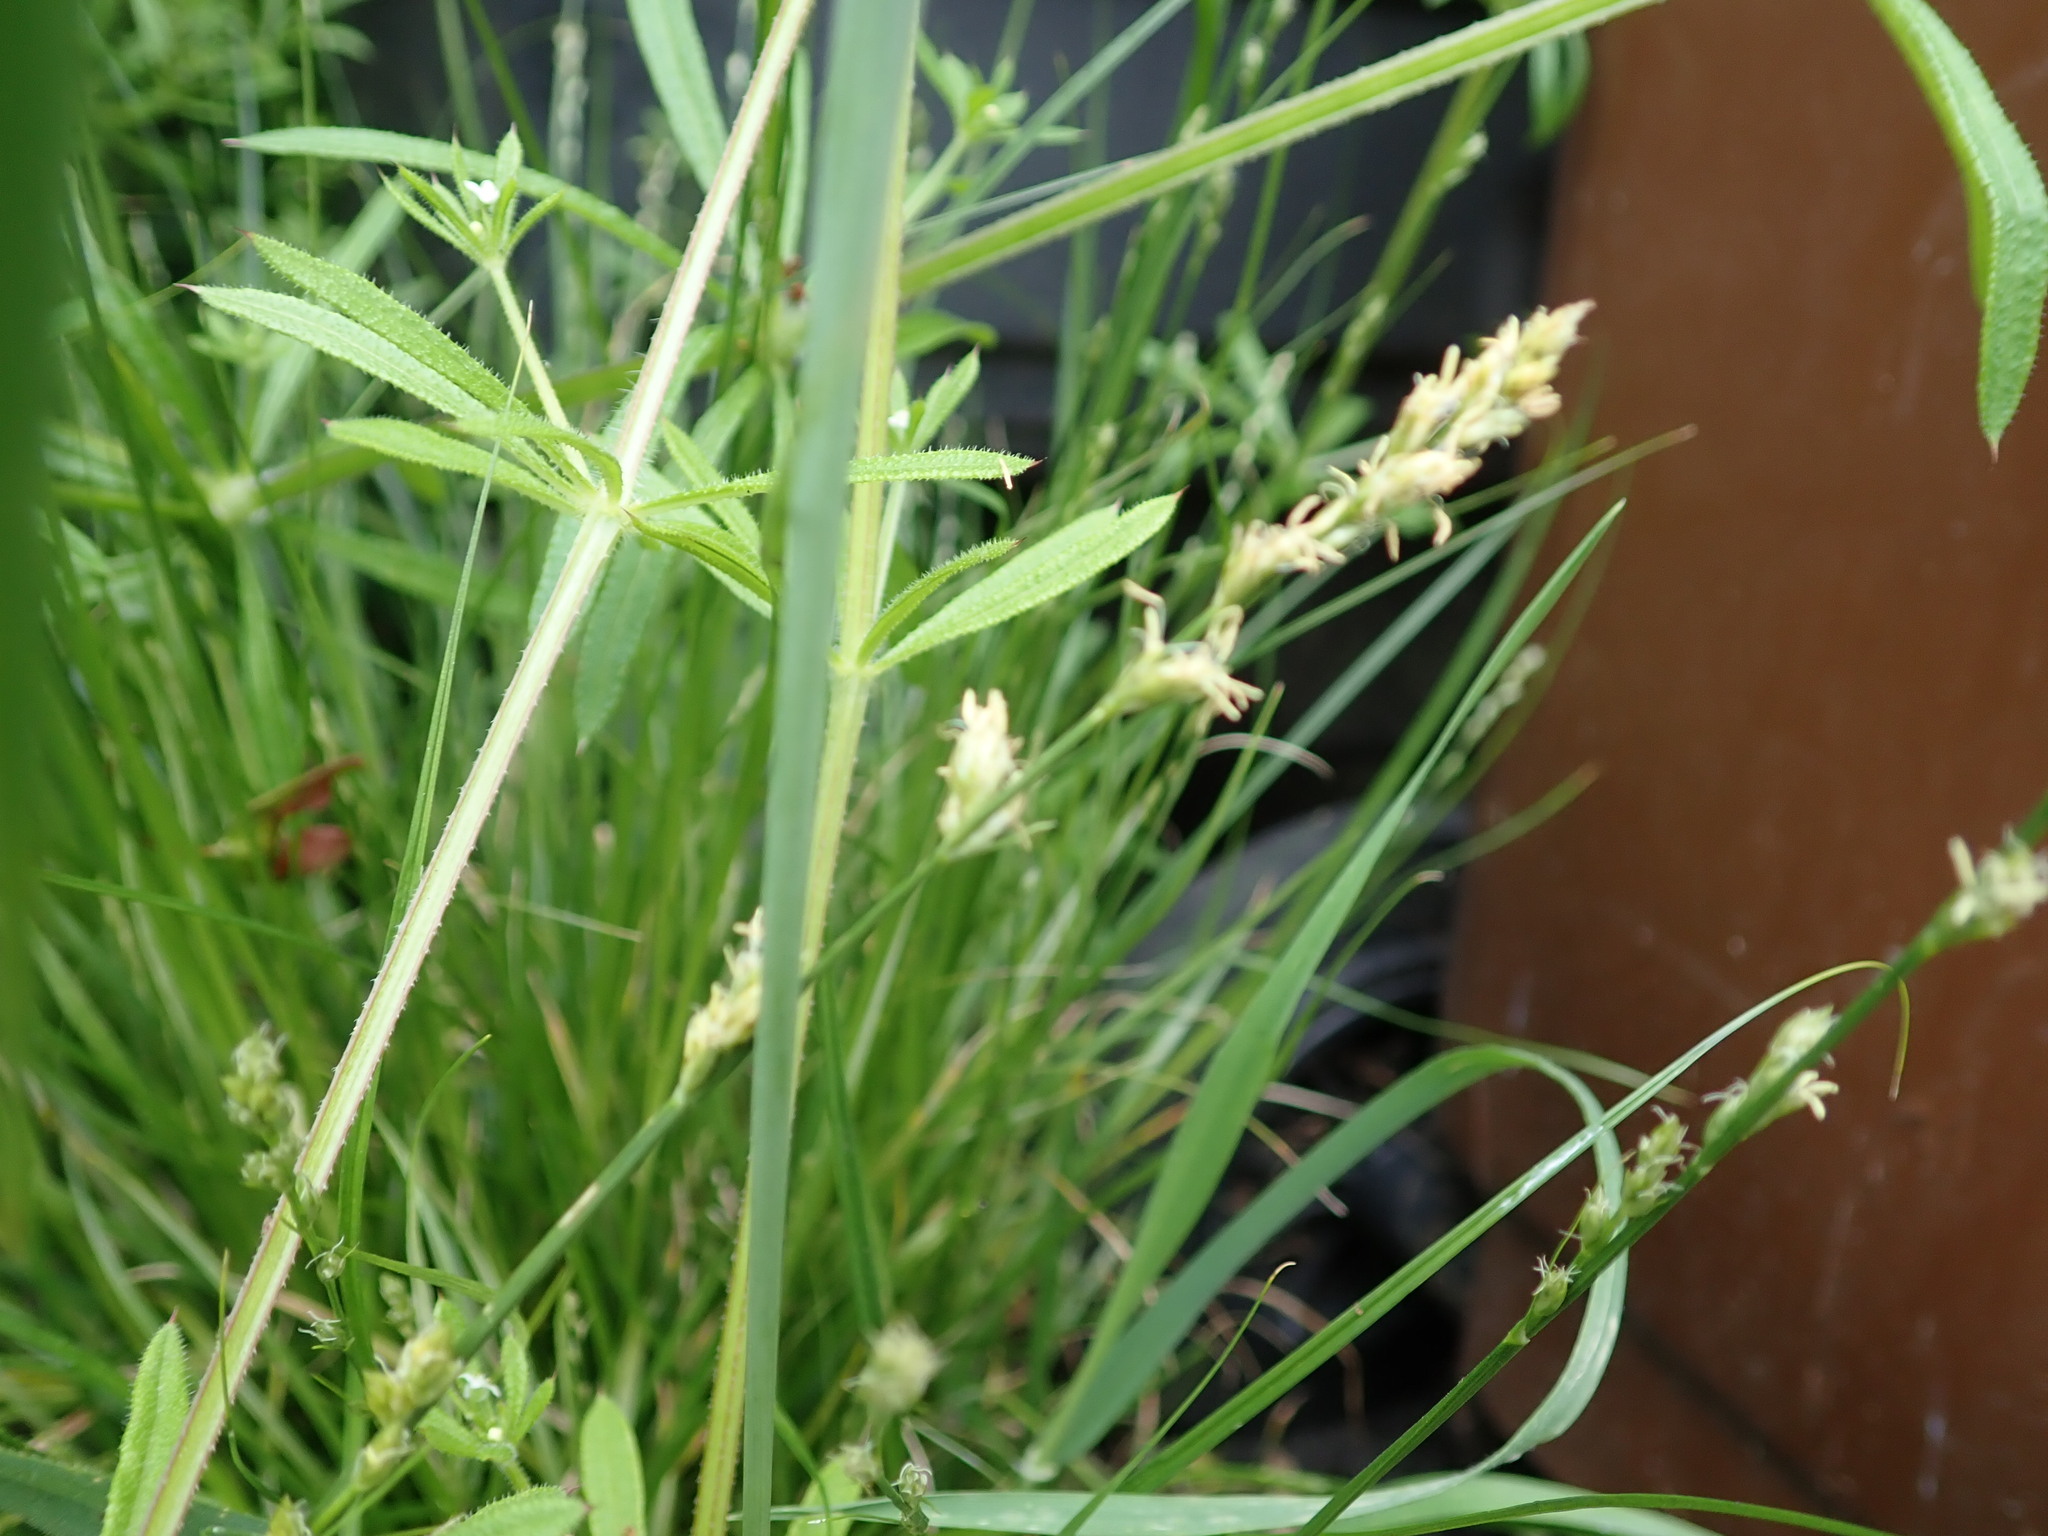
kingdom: Plantae
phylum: Tracheophyta
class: Liliopsida
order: Poales
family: Cyperaceae
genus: Carex
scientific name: Carex divulsa
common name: Grassland sedge
